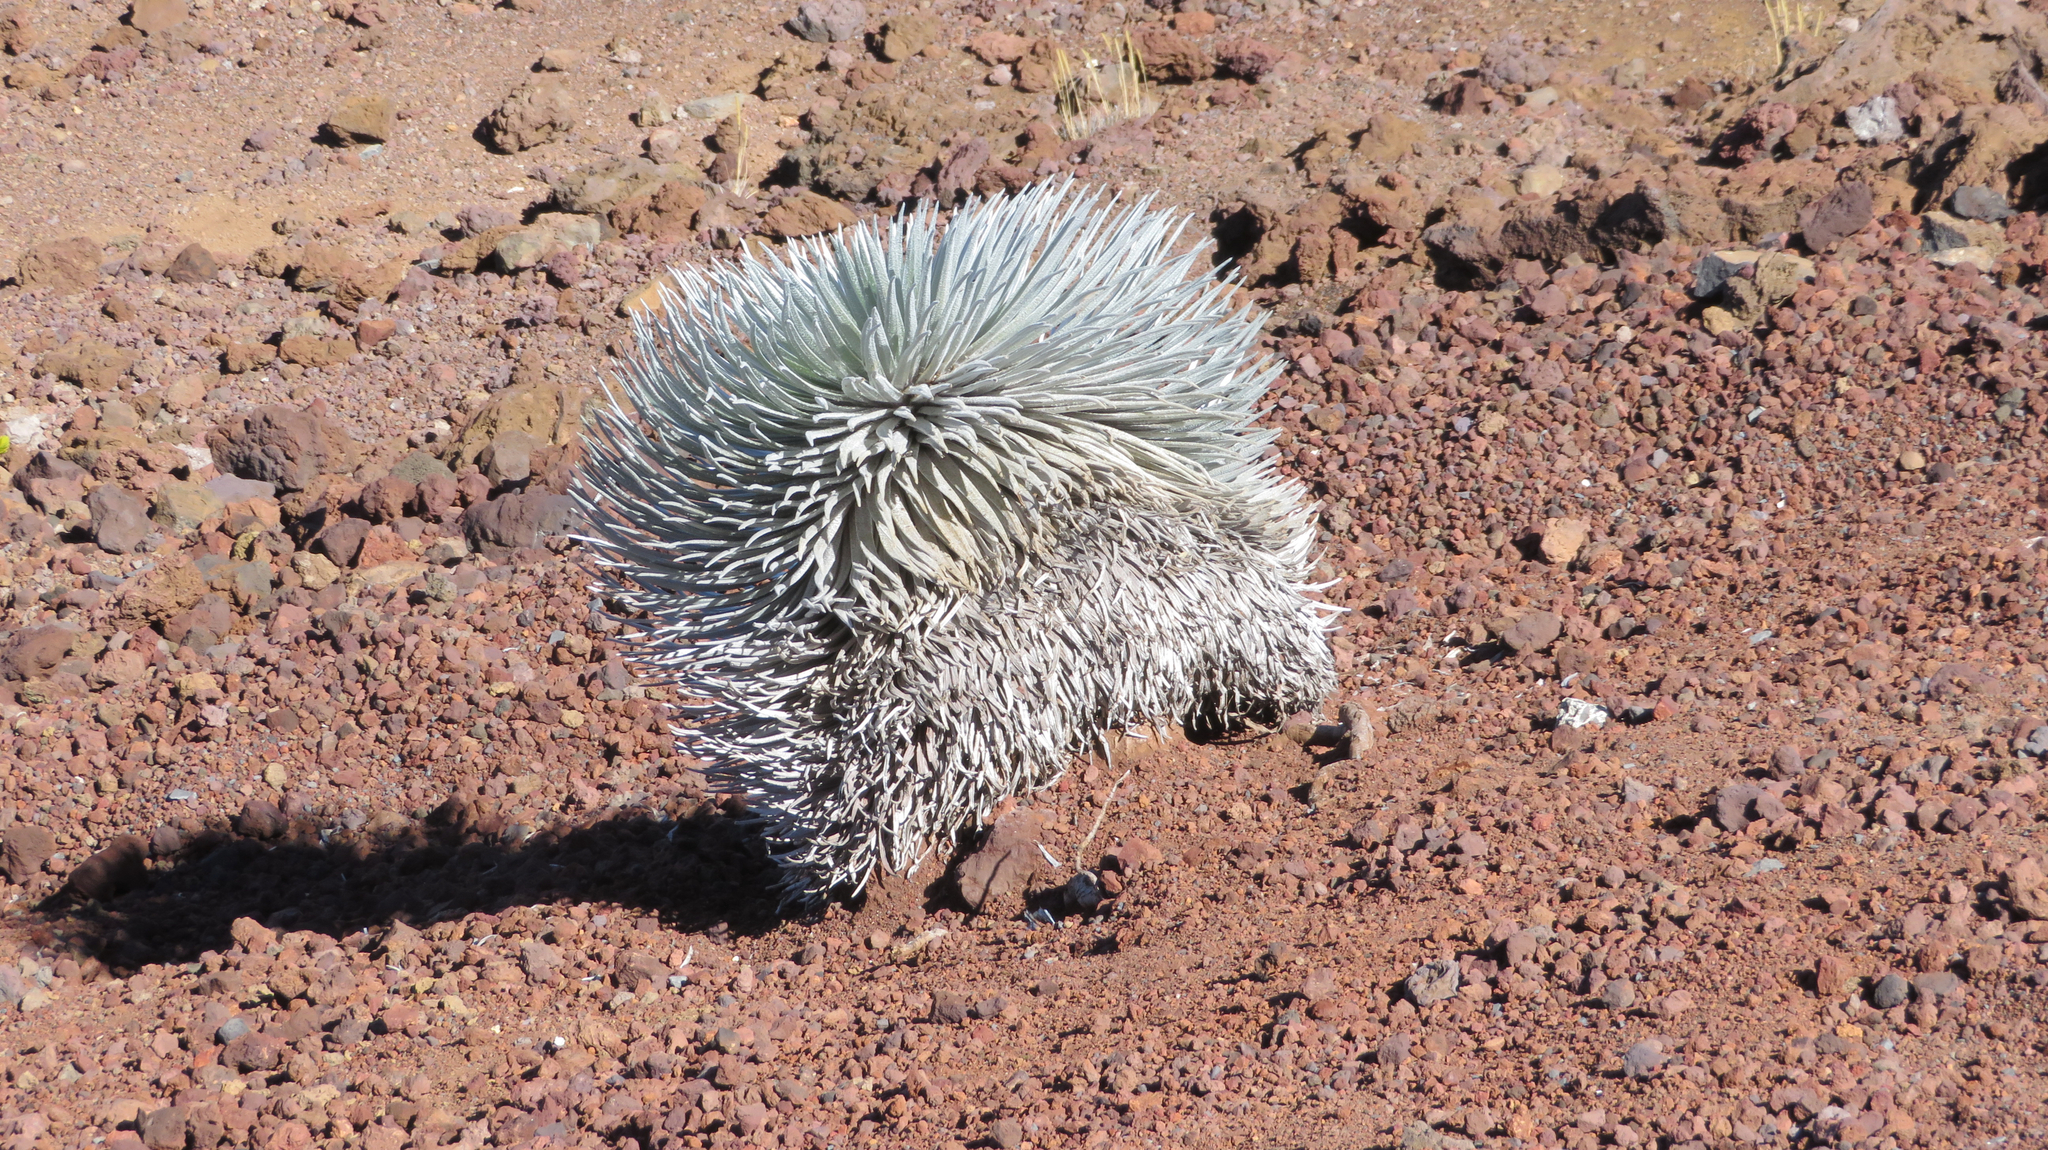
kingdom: Plantae
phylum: Tracheophyta
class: Magnoliopsida
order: Asterales
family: Asteraceae
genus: Argyroxiphium
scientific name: Argyroxiphium sandwicense
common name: Silversword
